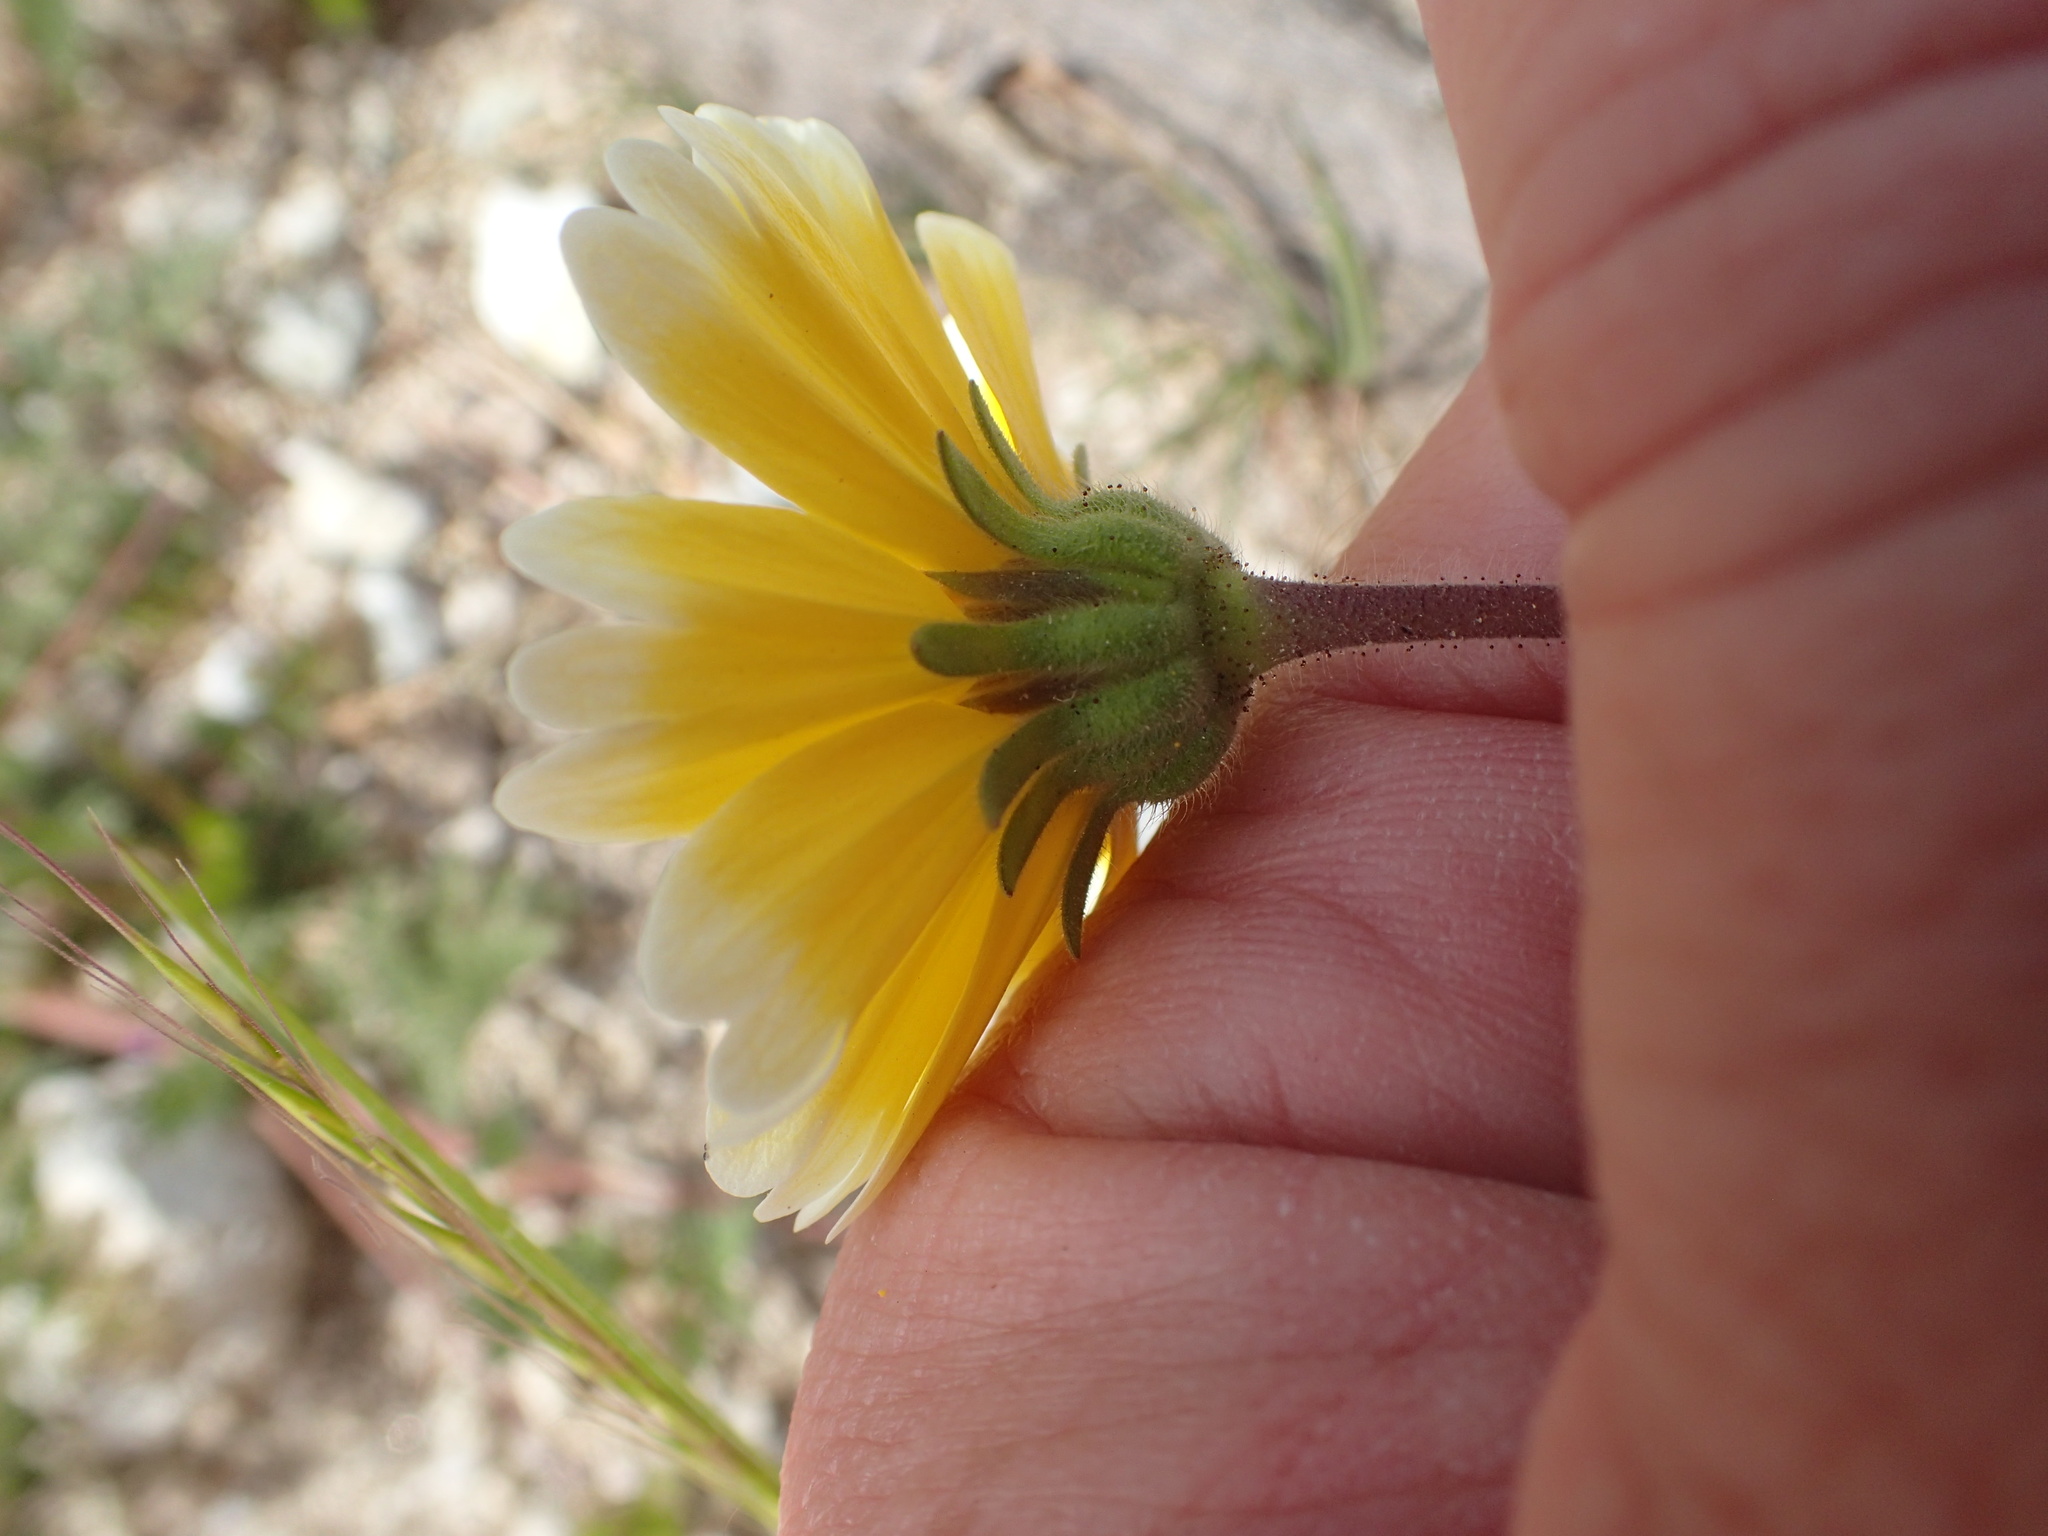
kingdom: Plantae
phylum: Tracheophyta
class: Magnoliopsida
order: Asterales
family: Asteraceae
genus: Layia
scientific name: Layia platyglossa
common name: Tidy-tips
